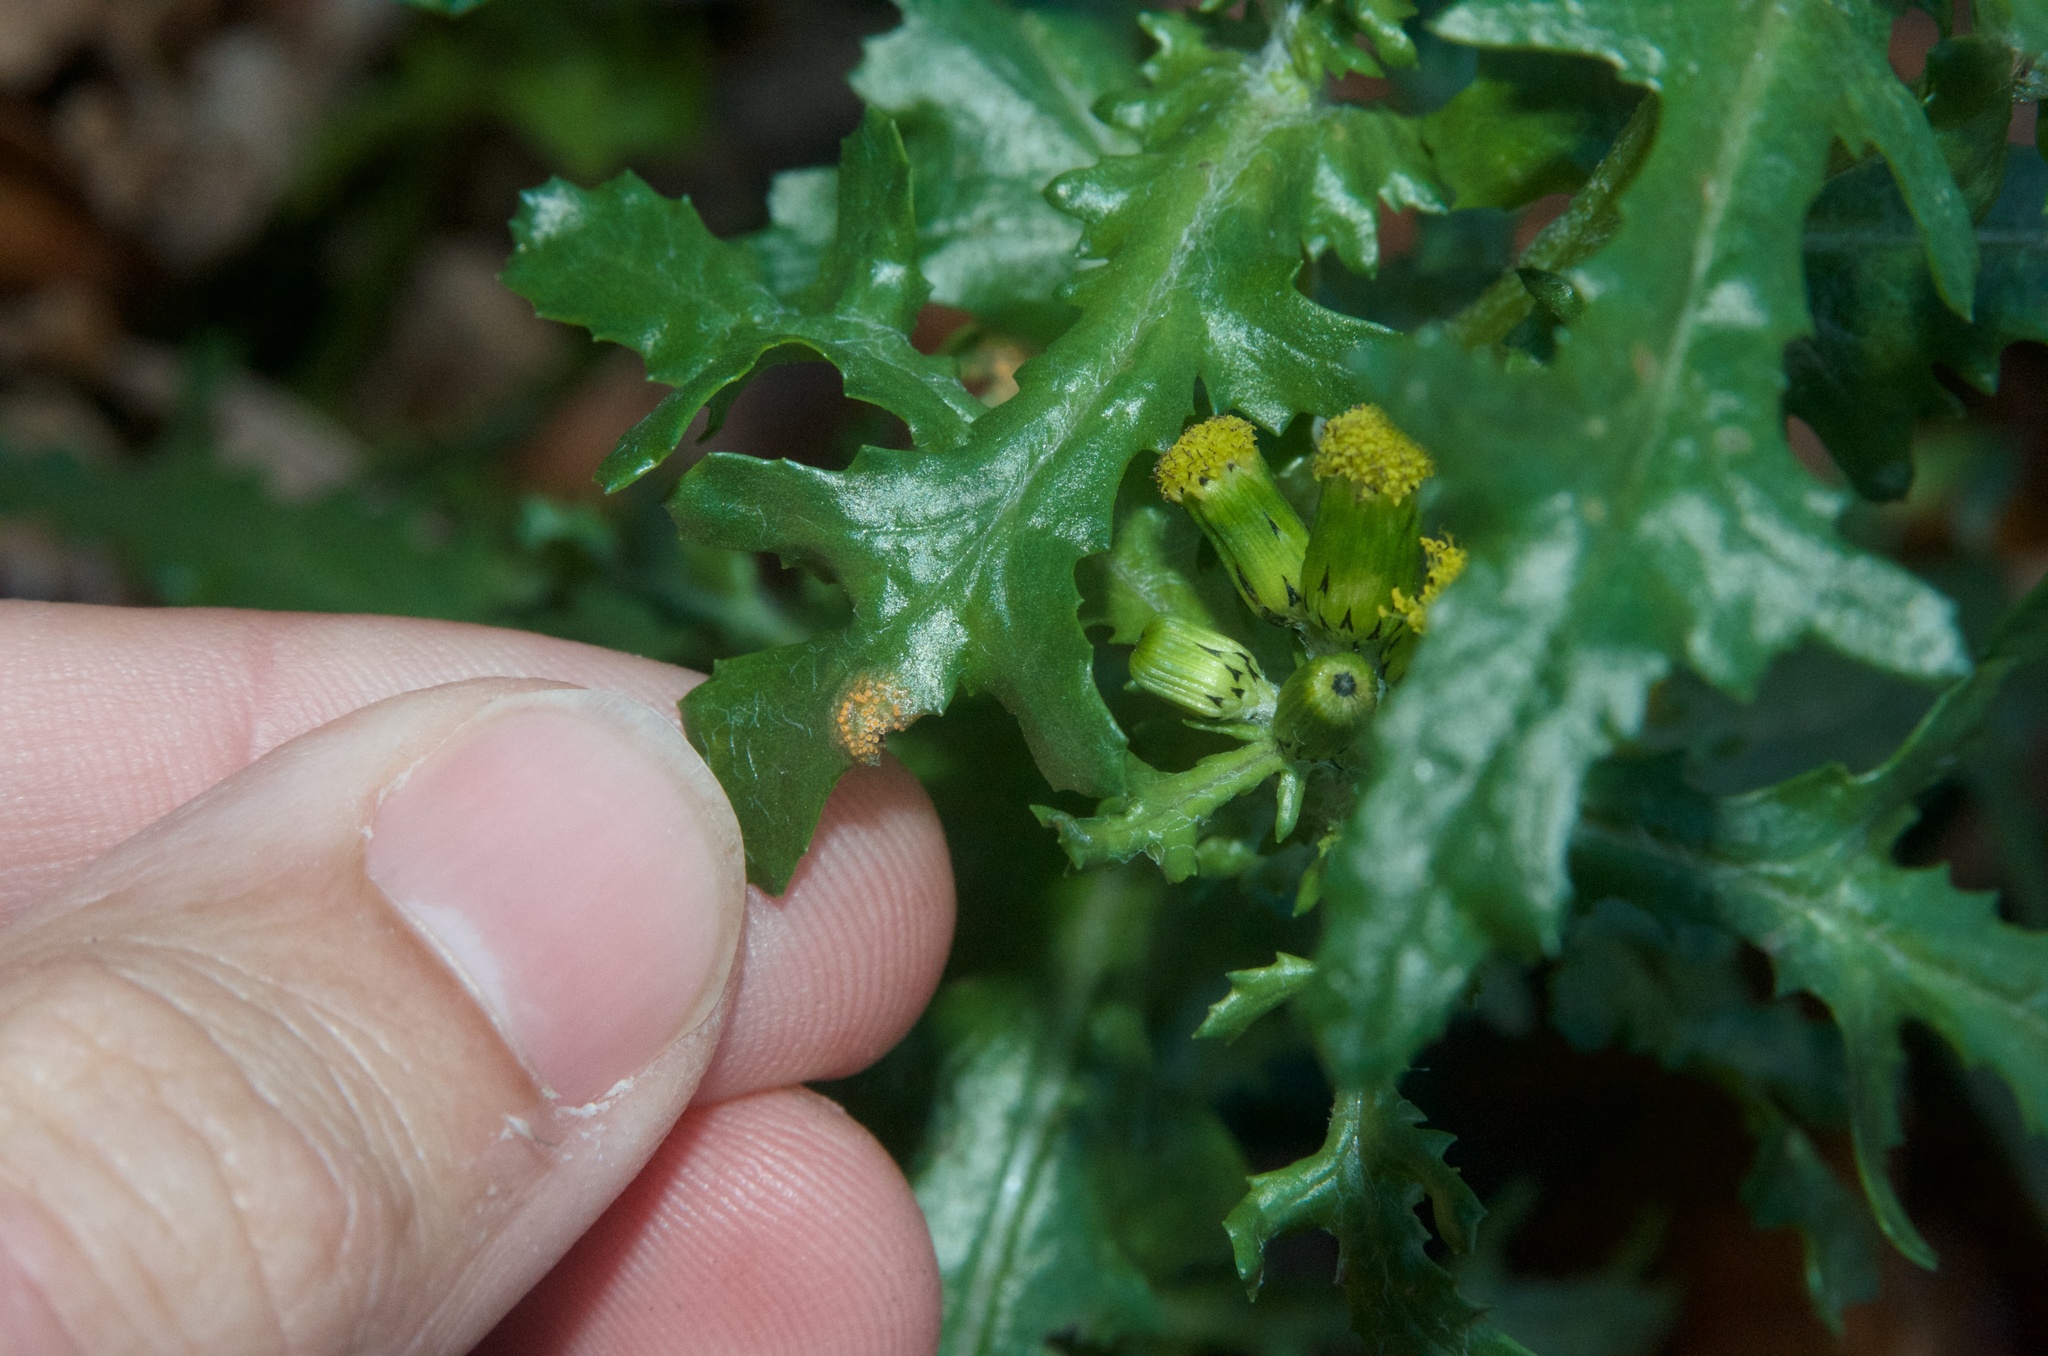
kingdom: Fungi
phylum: Basidiomycota
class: Pucciniomycetes
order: Pucciniales
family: Pucciniaceae
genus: Puccinia
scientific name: Puccinia lagenophorae
